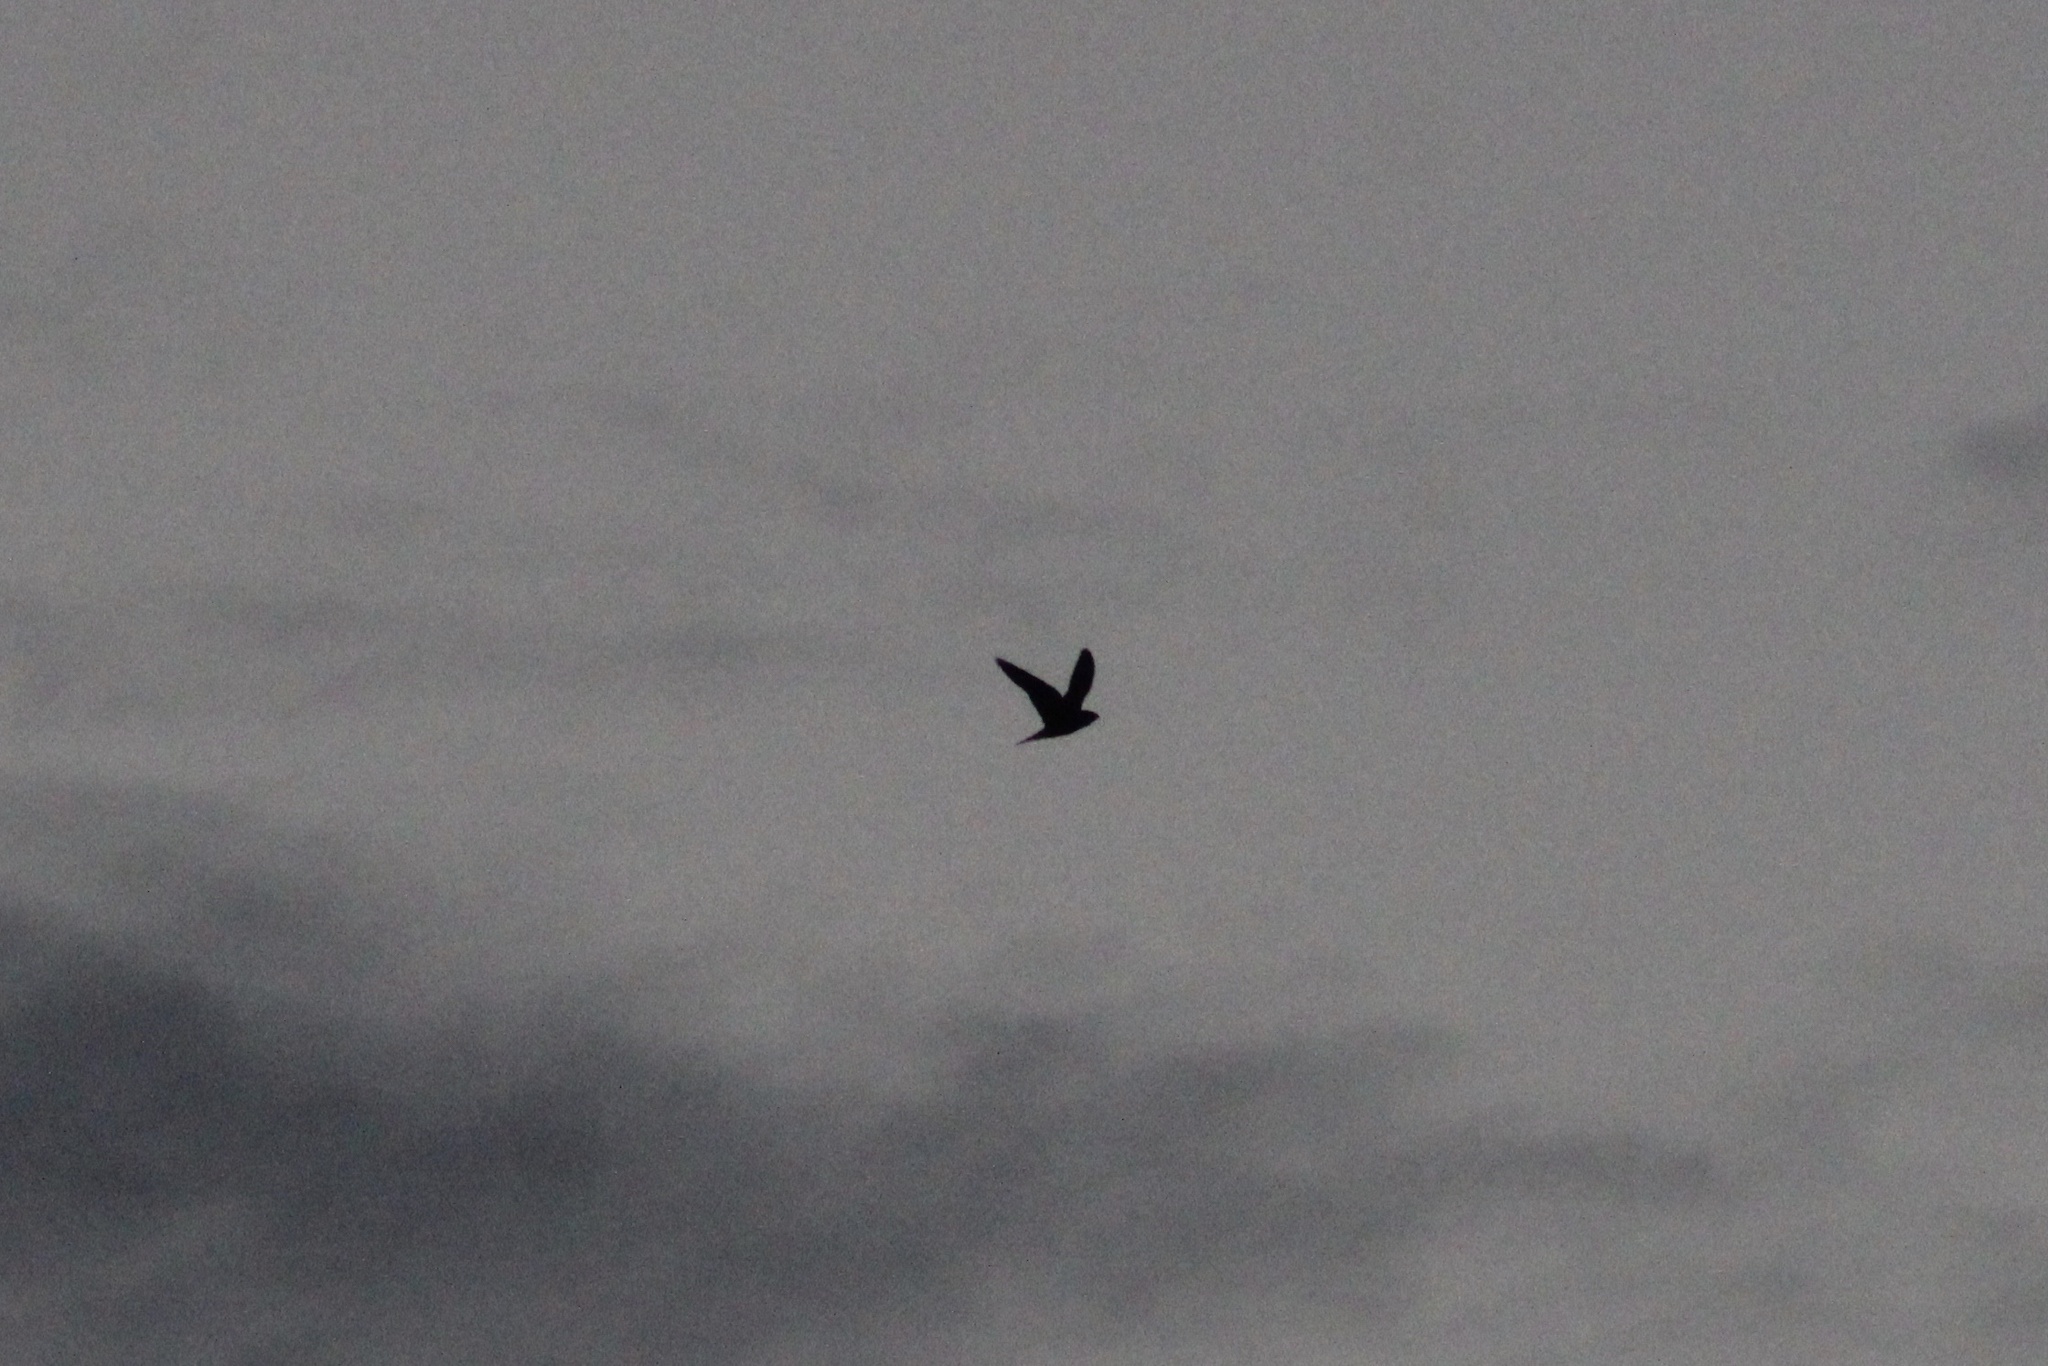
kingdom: Animalia
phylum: Chordata
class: Aves
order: Caprimulgiformes
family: Caprimulgidae
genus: Chordeiles
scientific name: Chordeiles minor
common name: Common nighthawk
